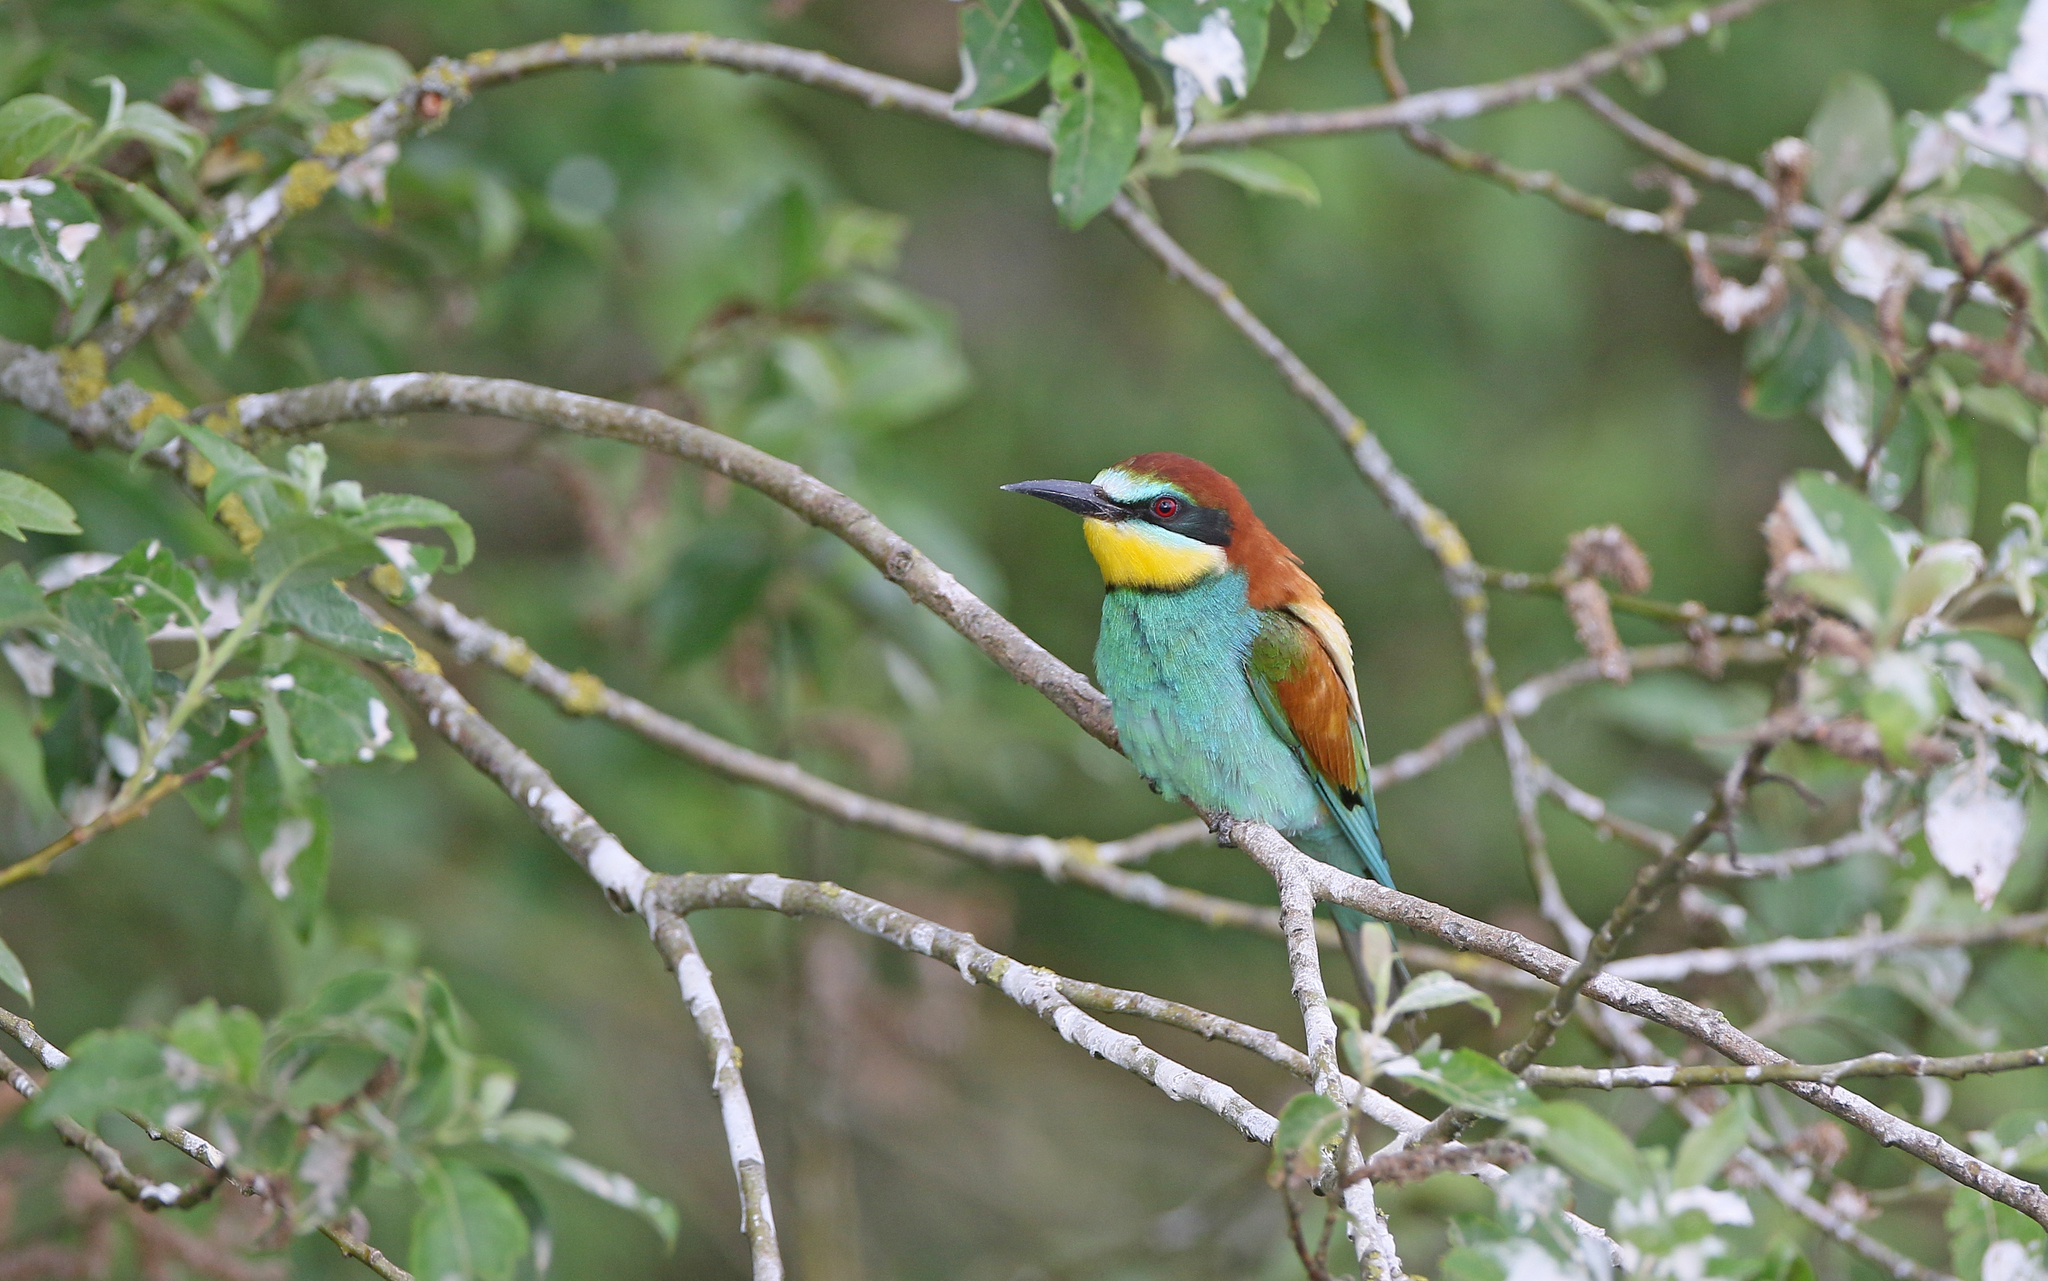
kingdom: Animalia
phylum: Chordata
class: Aves
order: Coraciiformes
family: Meropidae
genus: Merops
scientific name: Merops apiaster
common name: European bee-eater
